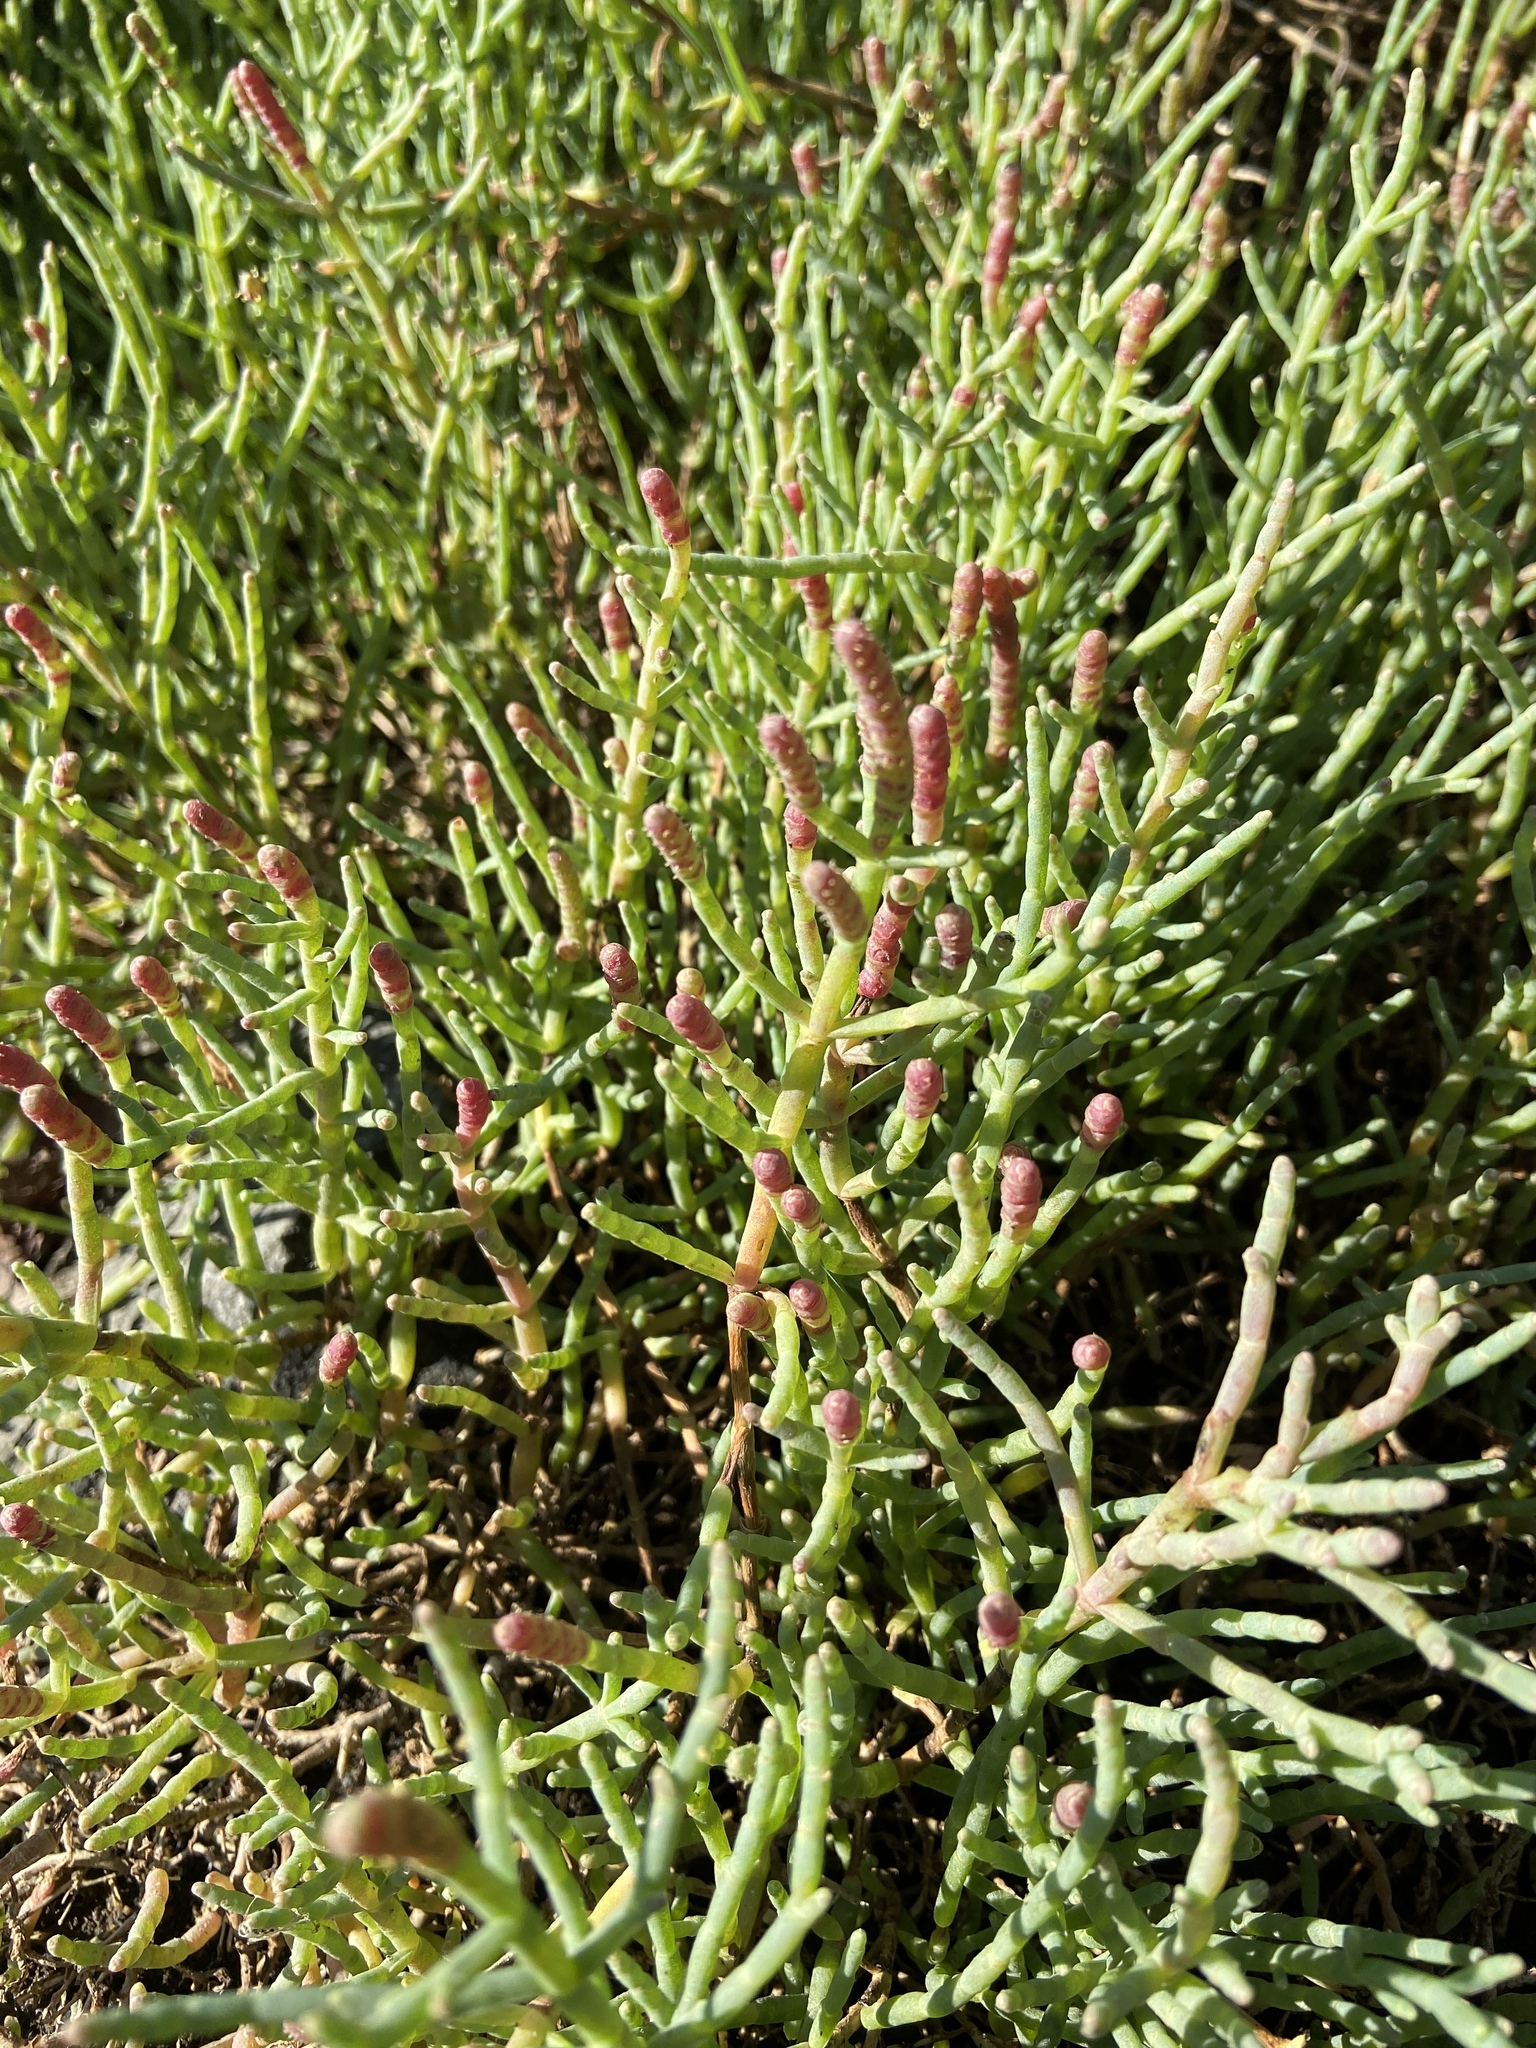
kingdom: Plantae
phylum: Tracheophyta
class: Magnoliopsida
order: Caryophyllales
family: Amaranthaceae
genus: Salicornia
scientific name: Salicornia pacifica
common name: Pacific glasswort
